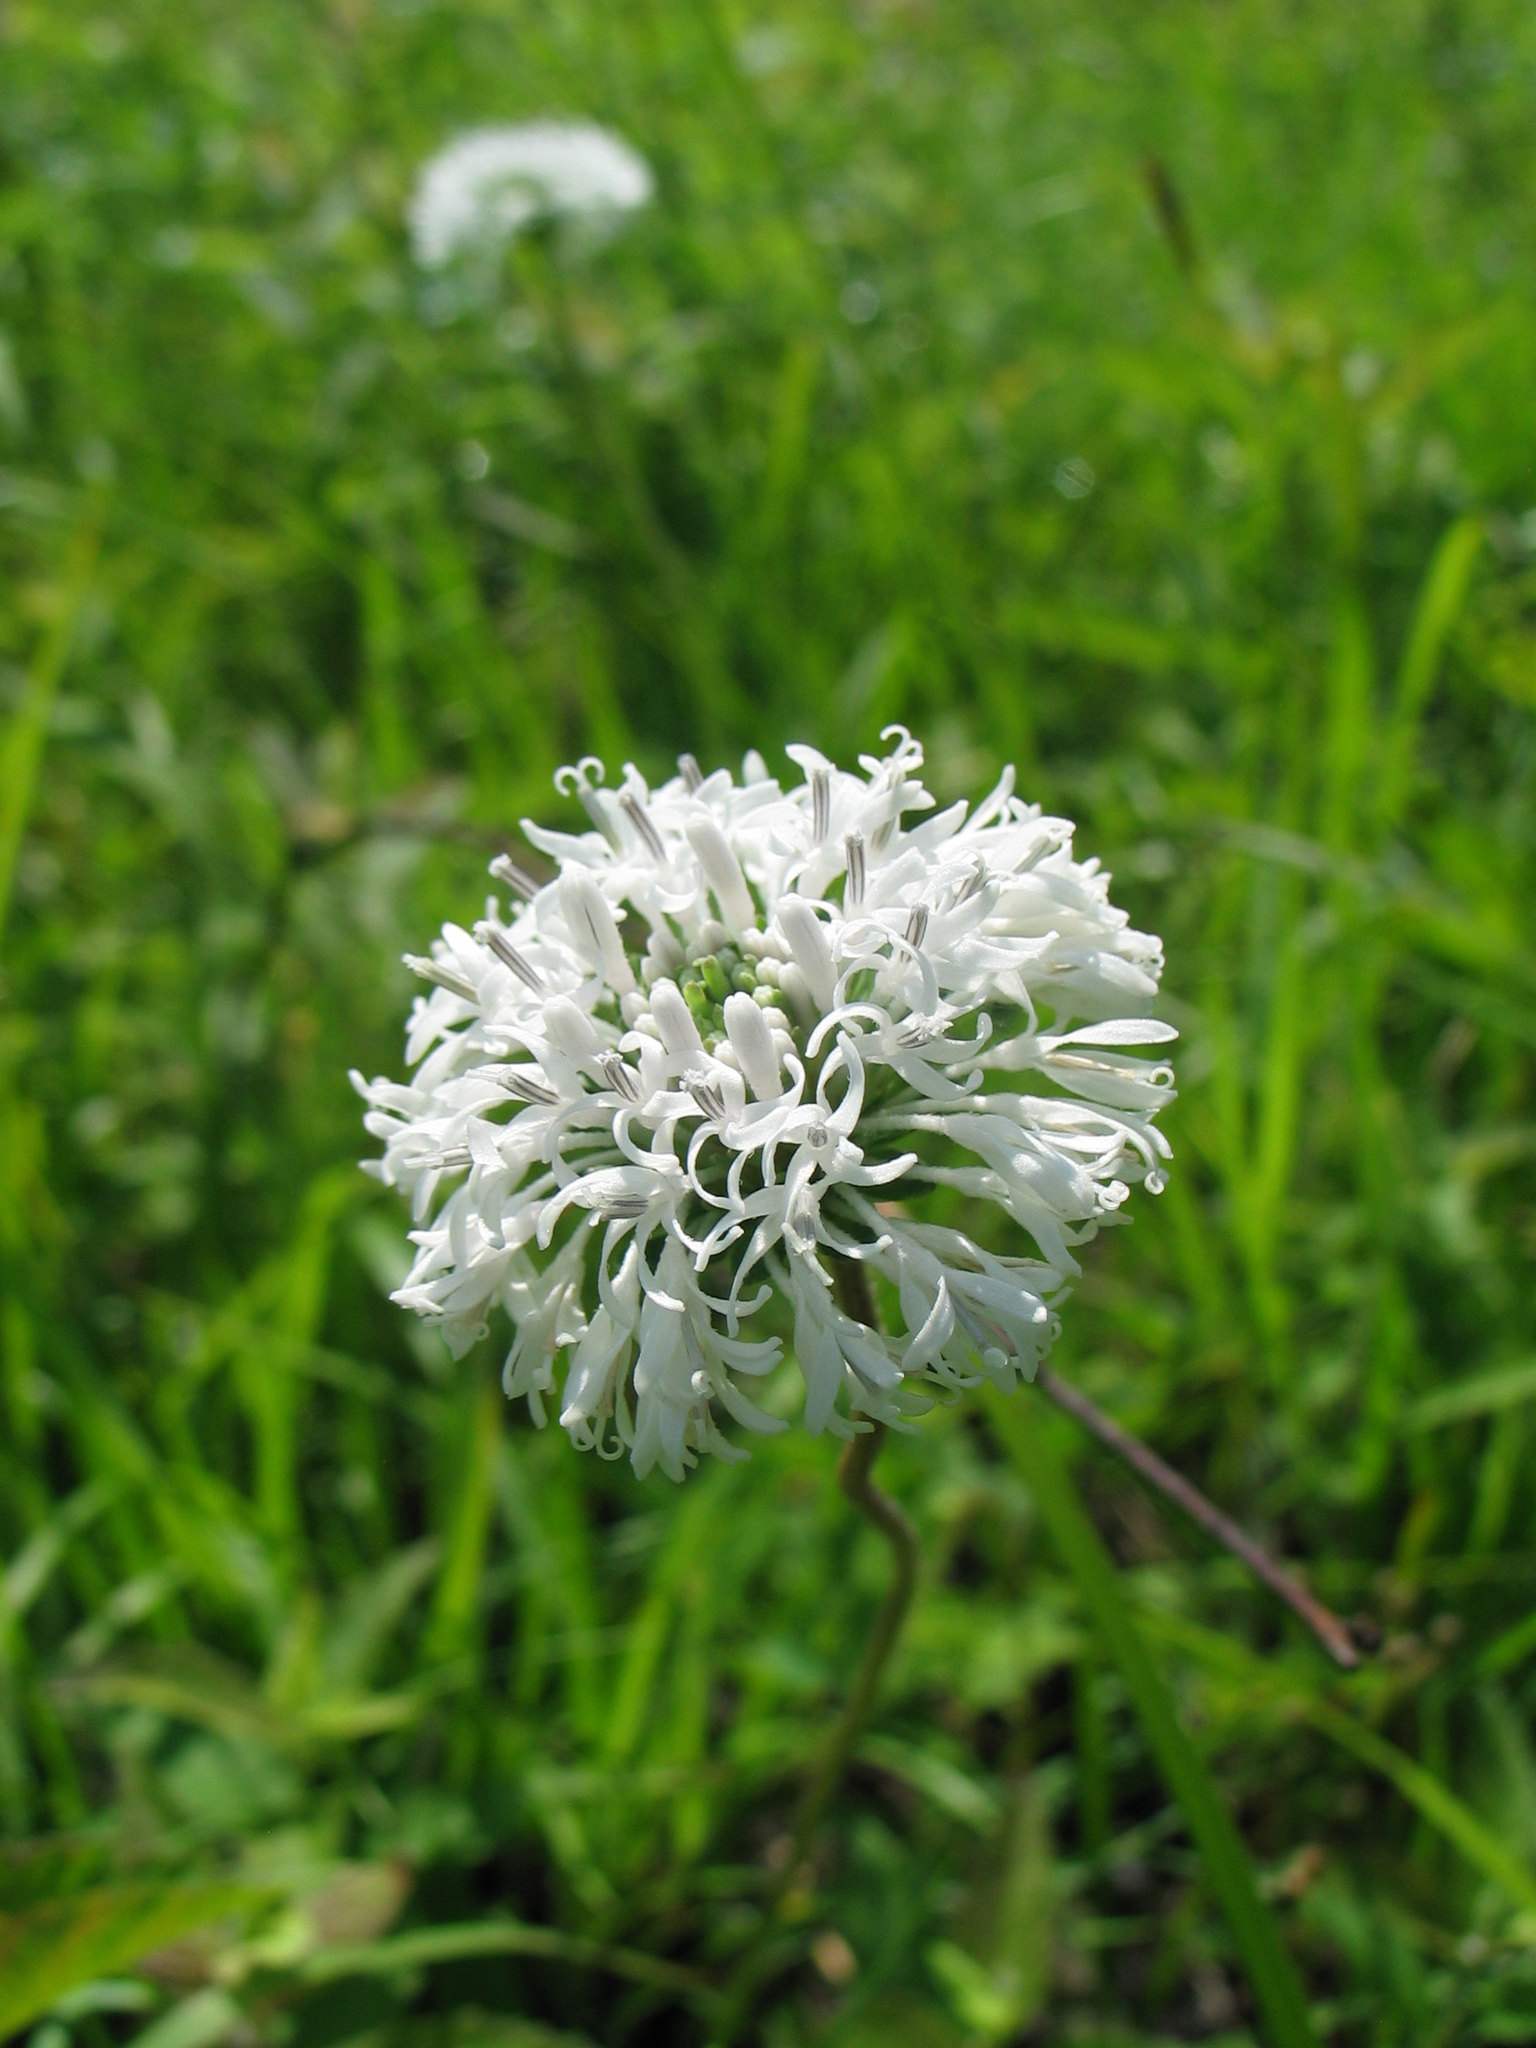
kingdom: Plantae
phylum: Tracheophyta
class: Magnoliopsida
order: Asterales
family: Asteraceae
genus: Marshallia
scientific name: Marshallia obovata
